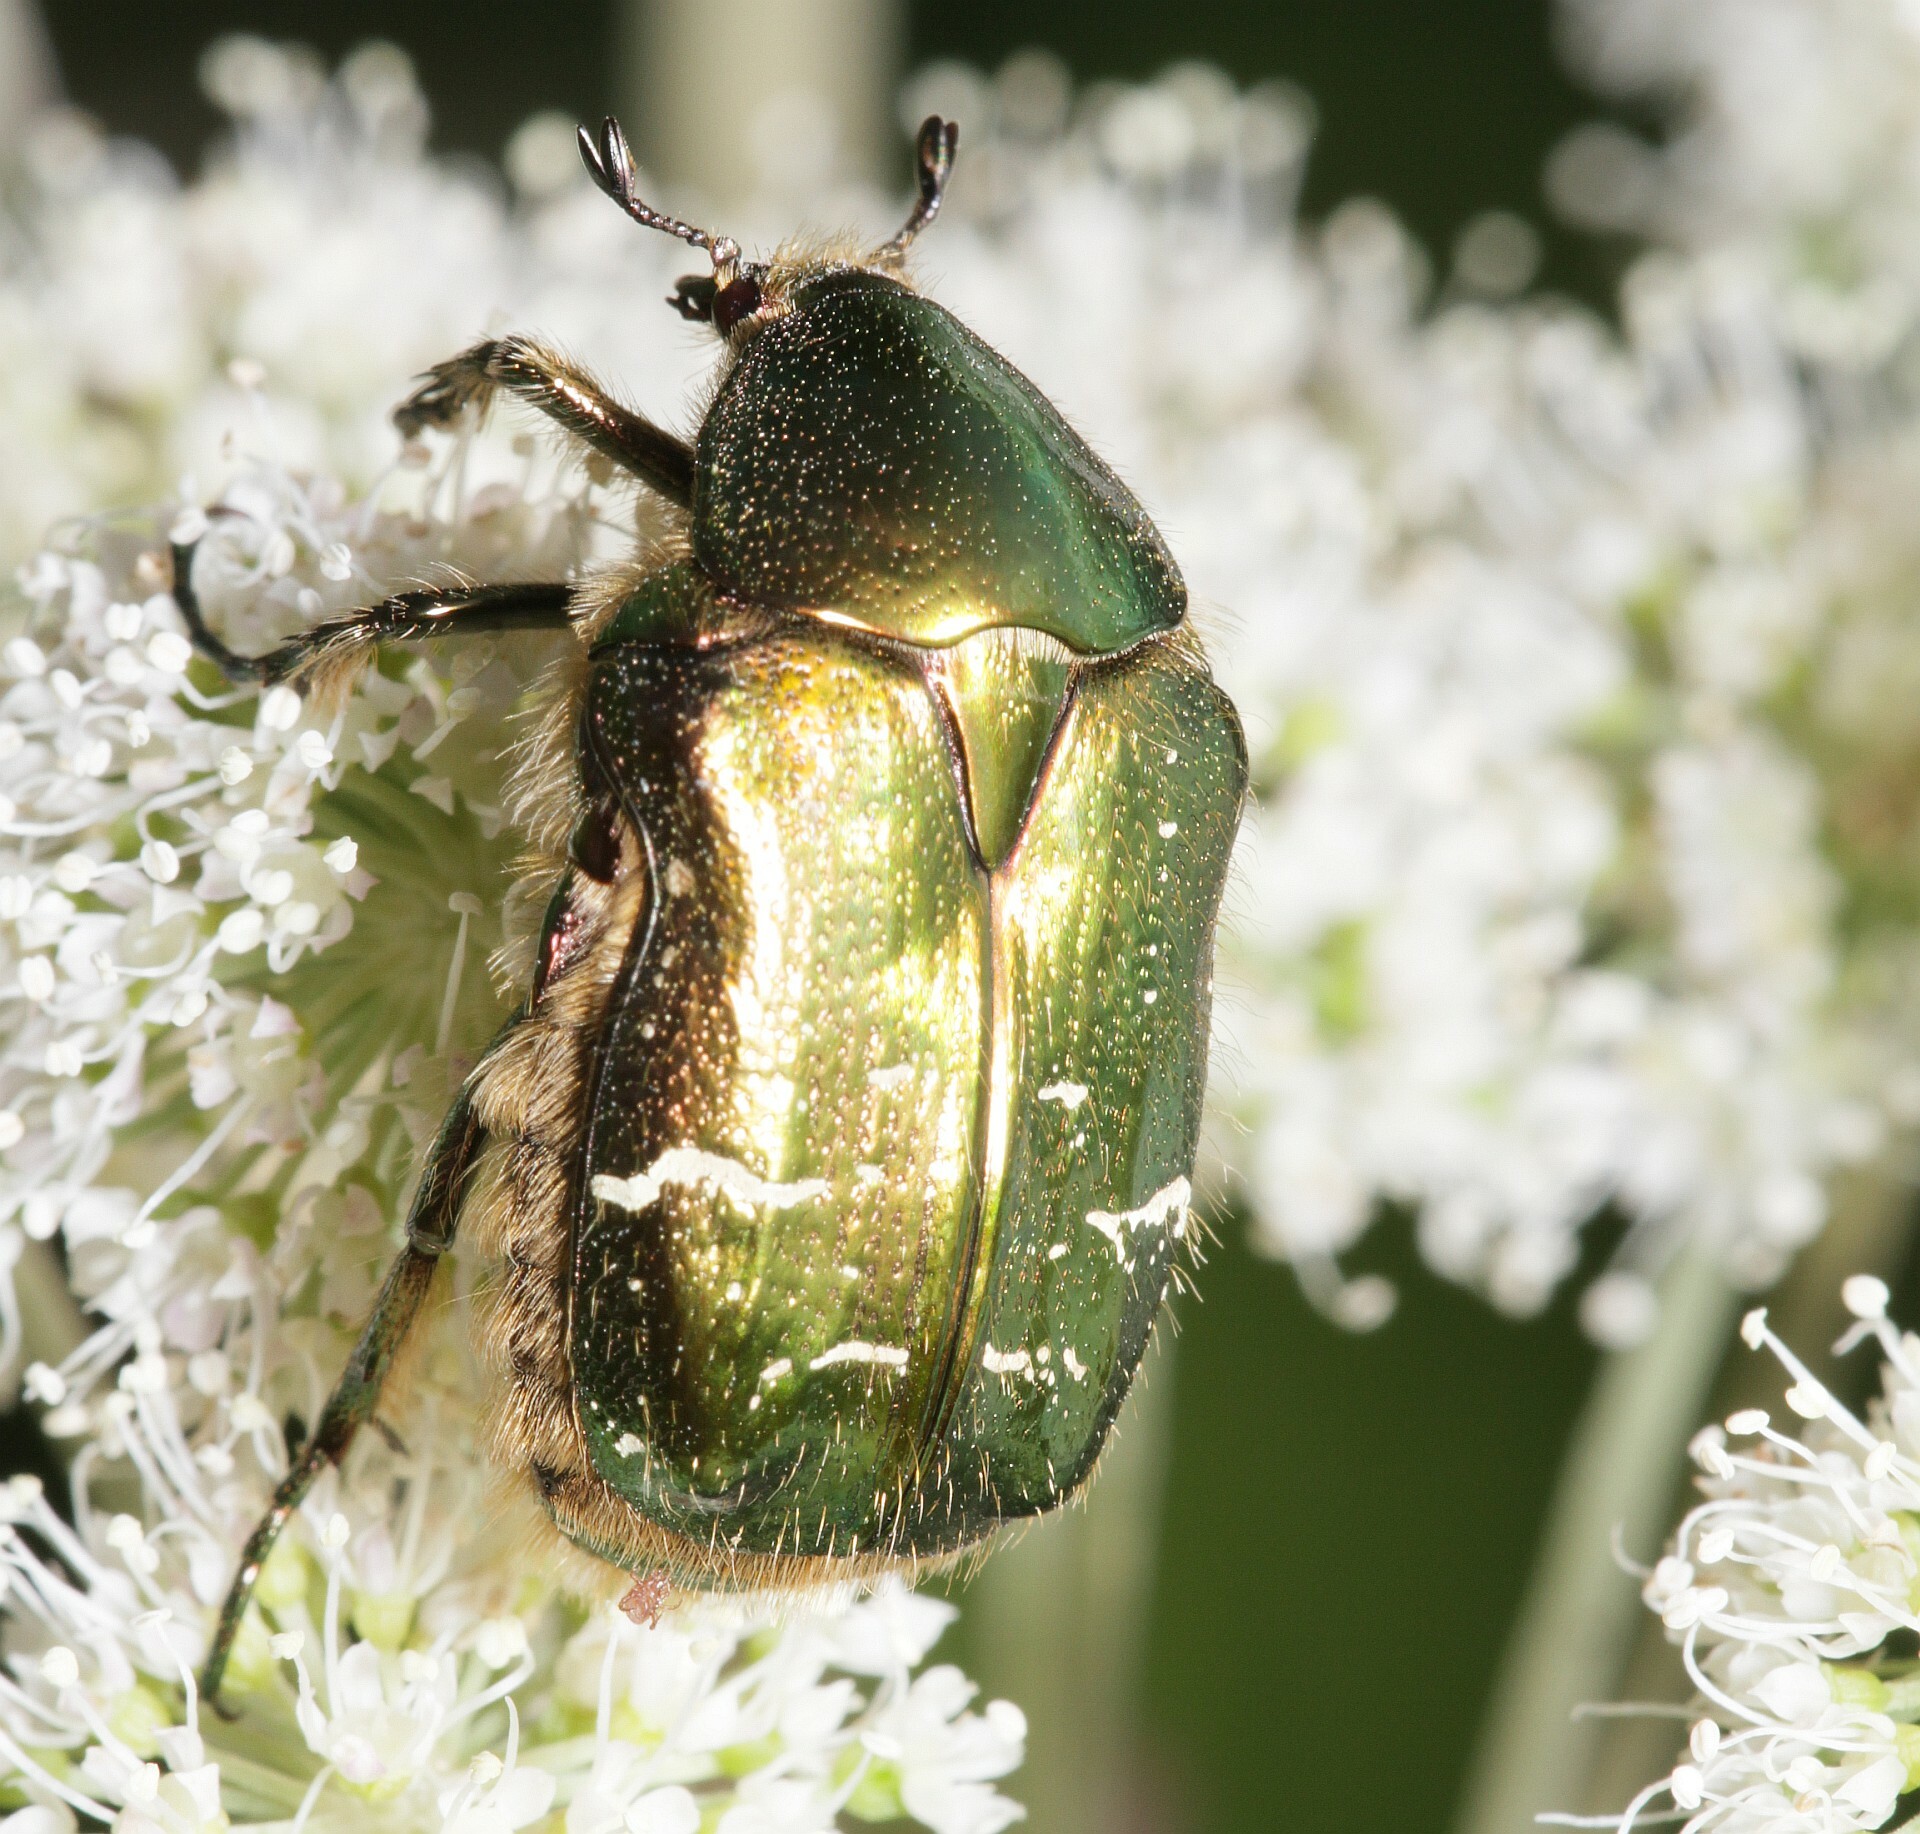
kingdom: Animalia
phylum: Arthropoda
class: Insecta
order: Coleoptera
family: Scarabaeidae
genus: Cetonia
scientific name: Cetonia aurata
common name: Rose chafer
